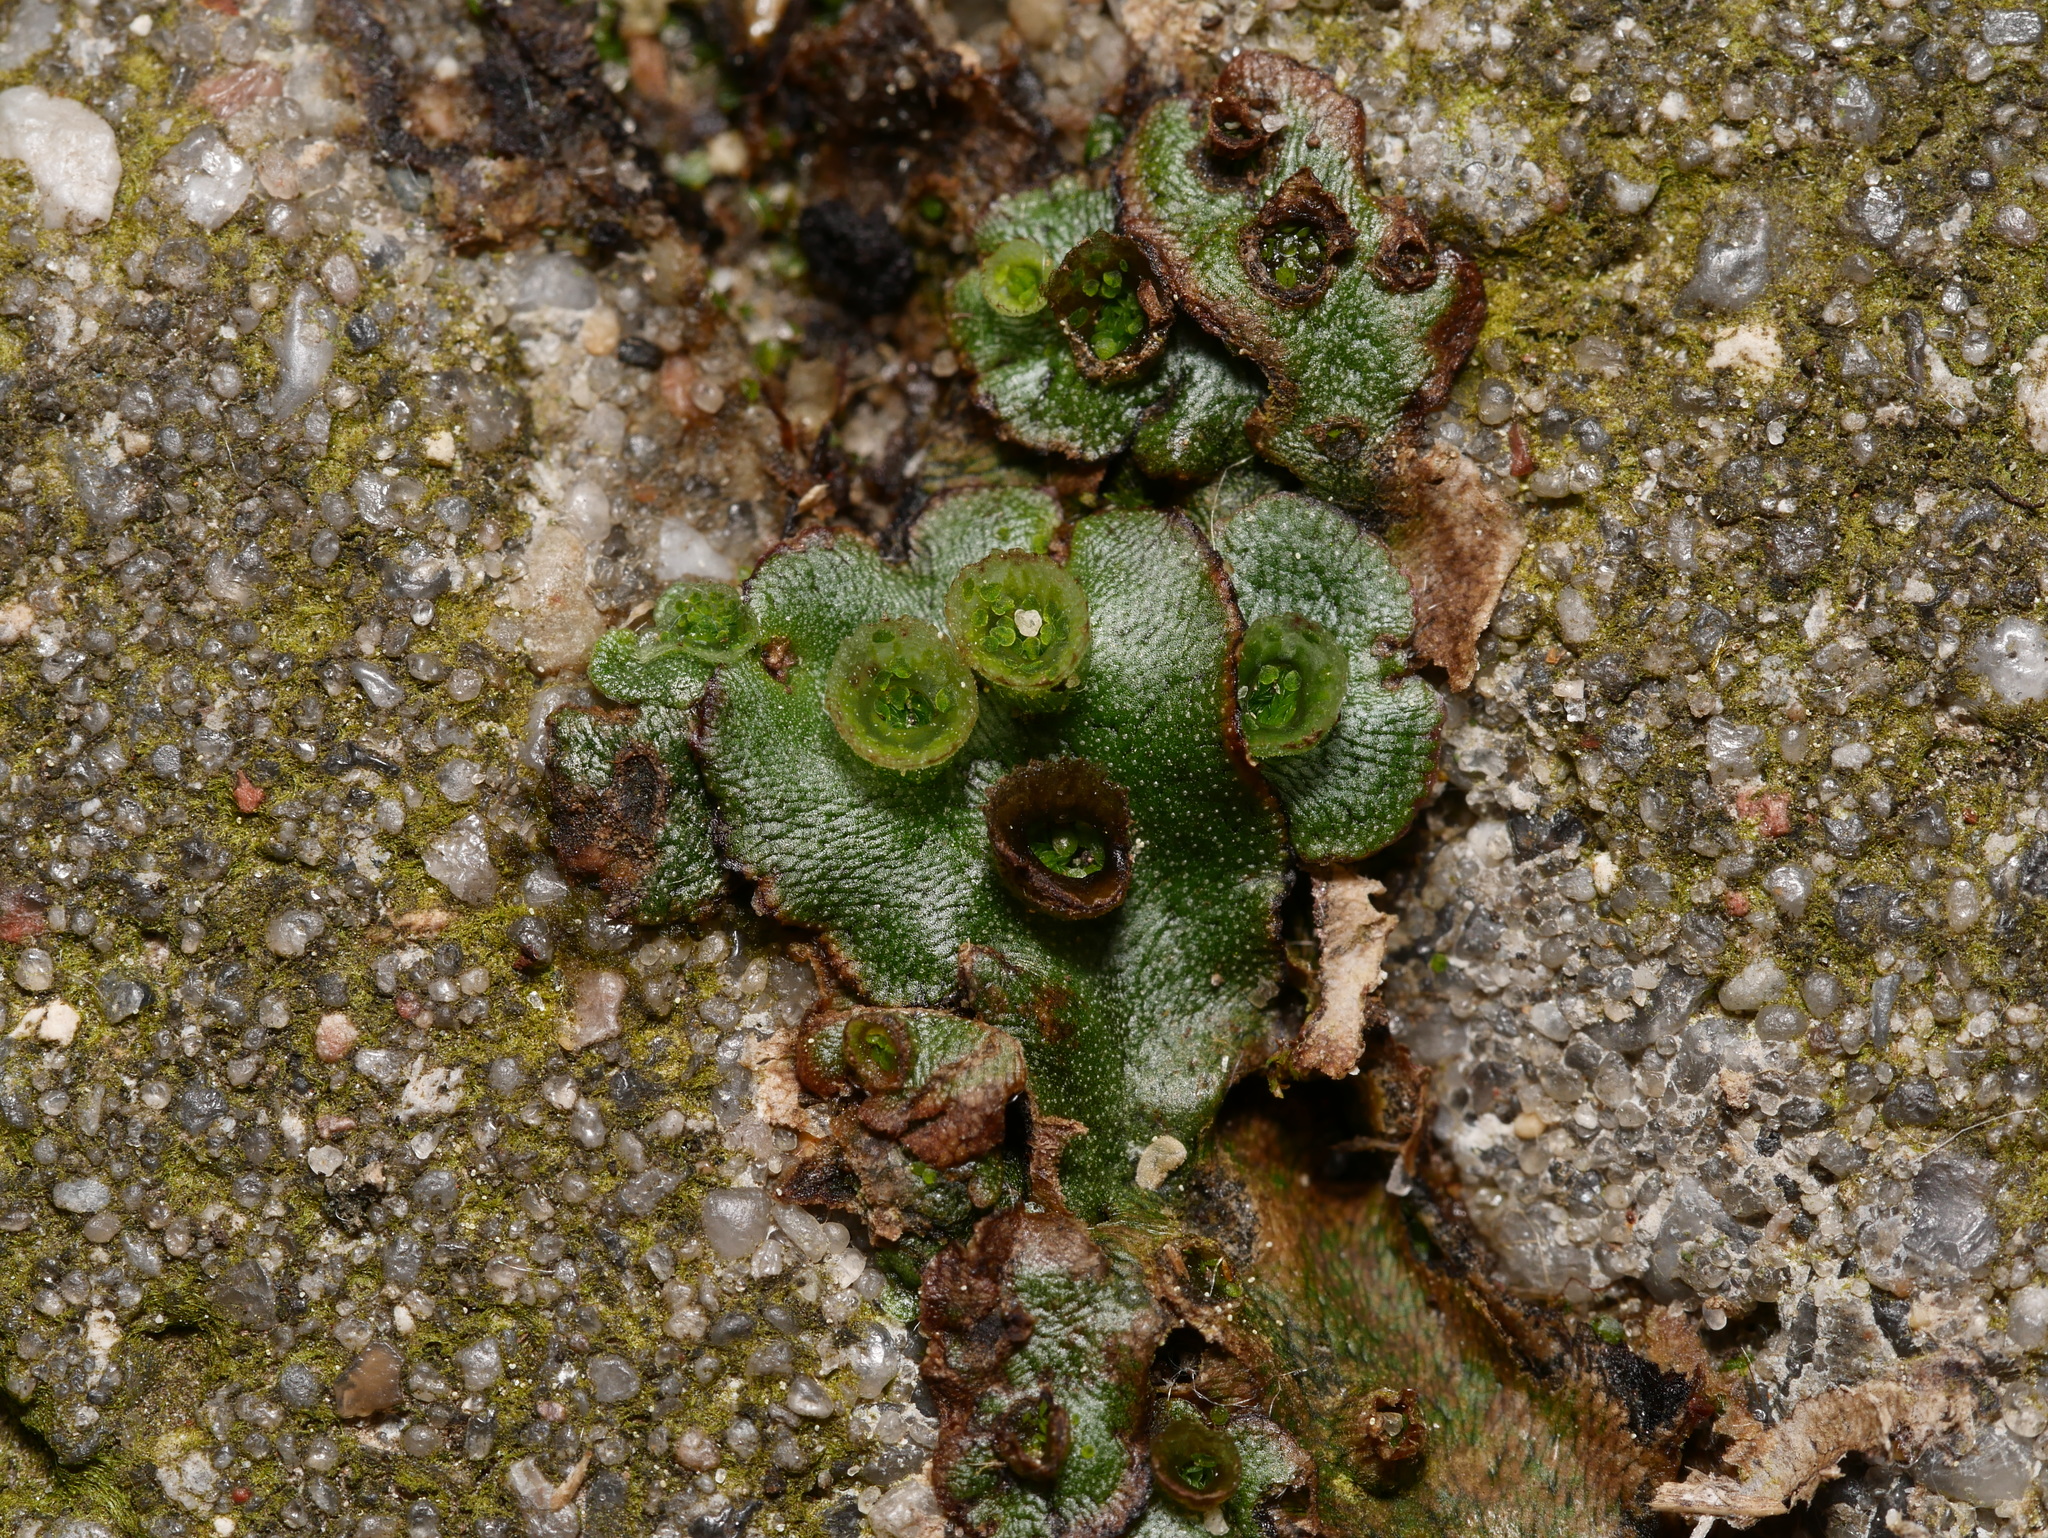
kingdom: Plantae
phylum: Marchantiophyta
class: Marchantiopsida
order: Marchantiales
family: Marchantiaceae
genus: Marchantia
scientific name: Marchantia polymorpha
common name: Common liverwort
